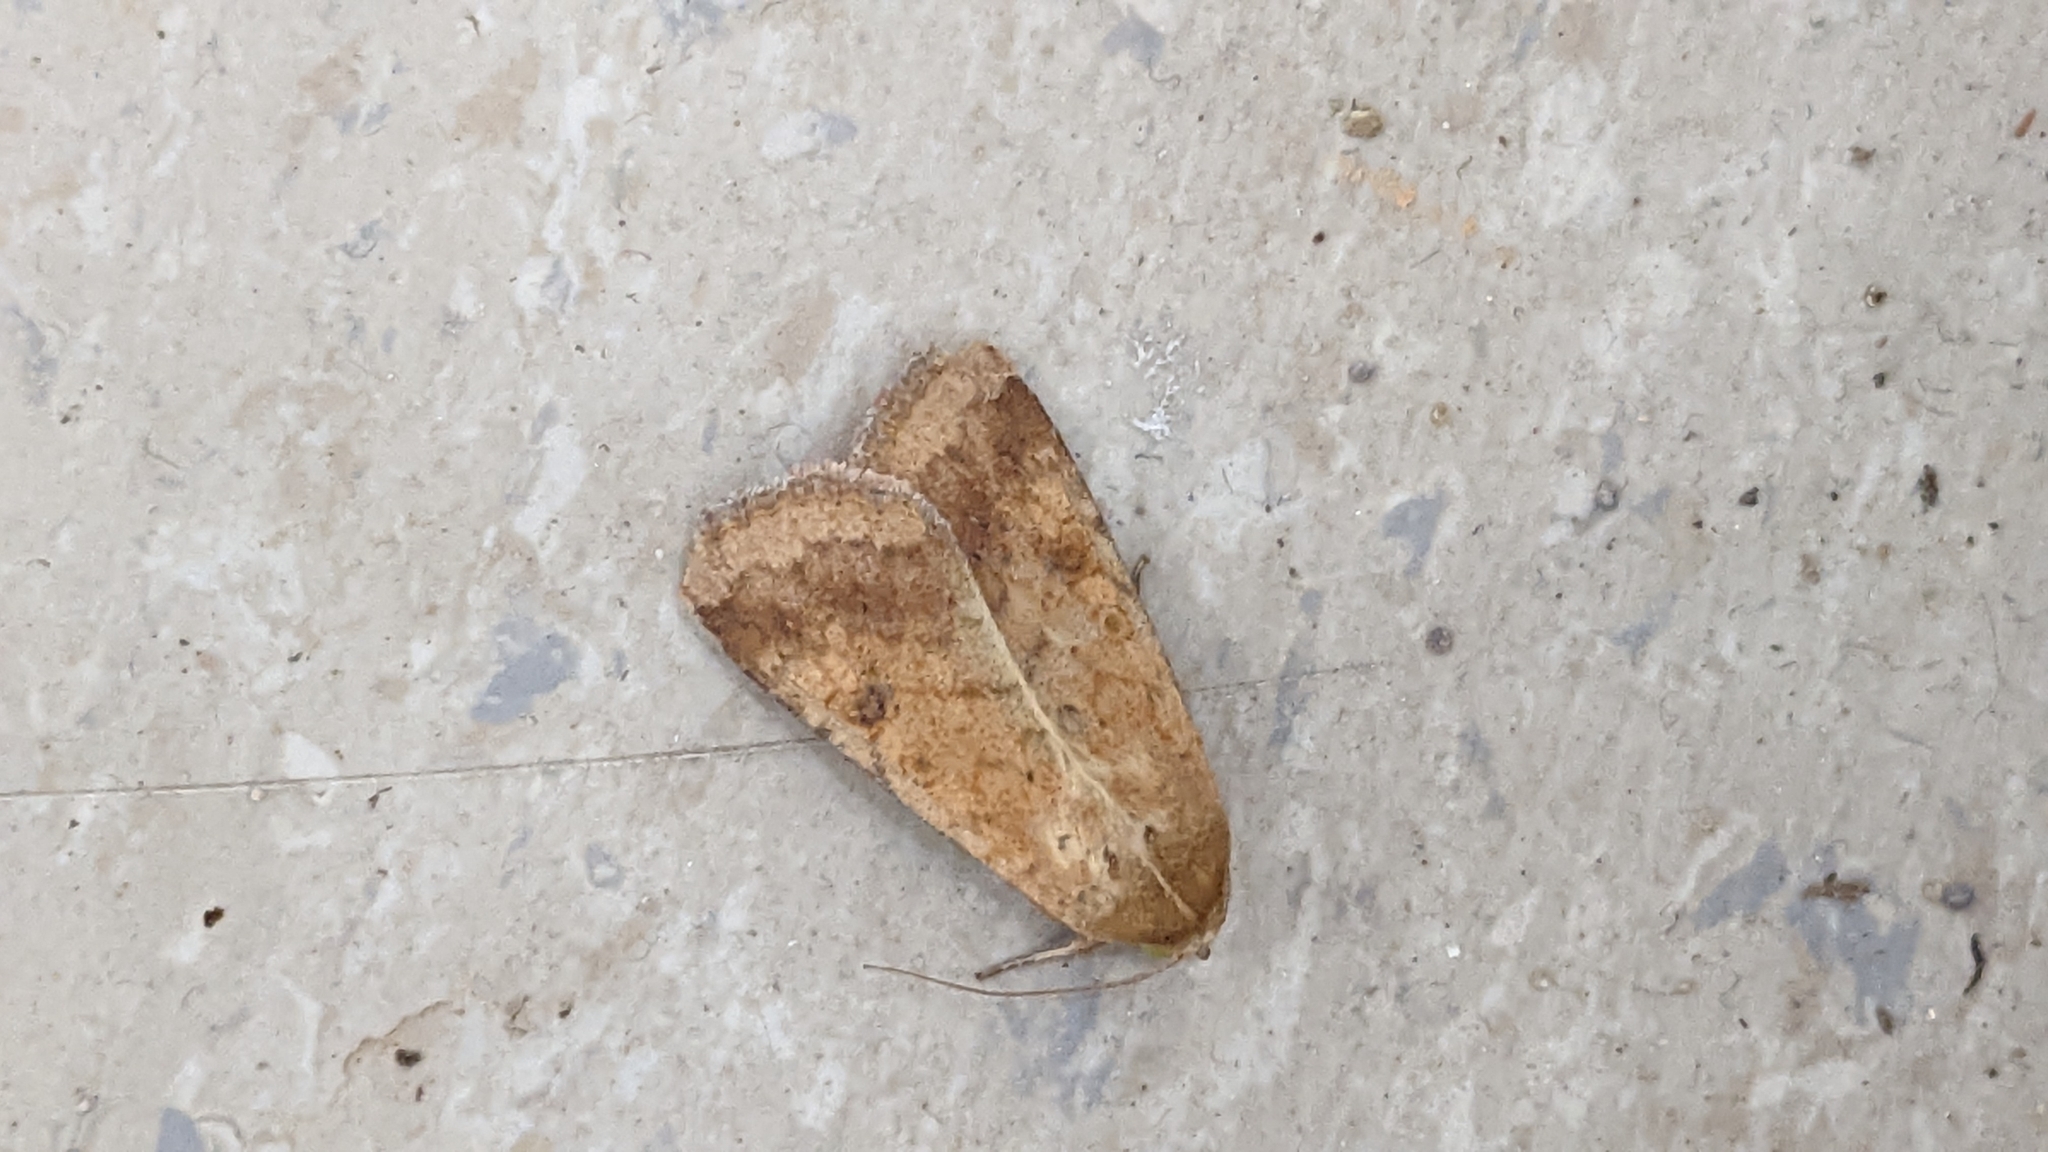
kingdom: Animalia
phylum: Arthropoda
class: Insecta
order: Lepidoptera
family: Noctuidae
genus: Helicoverpa
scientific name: Helicoverpa armigera
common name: Cotton bollworm
